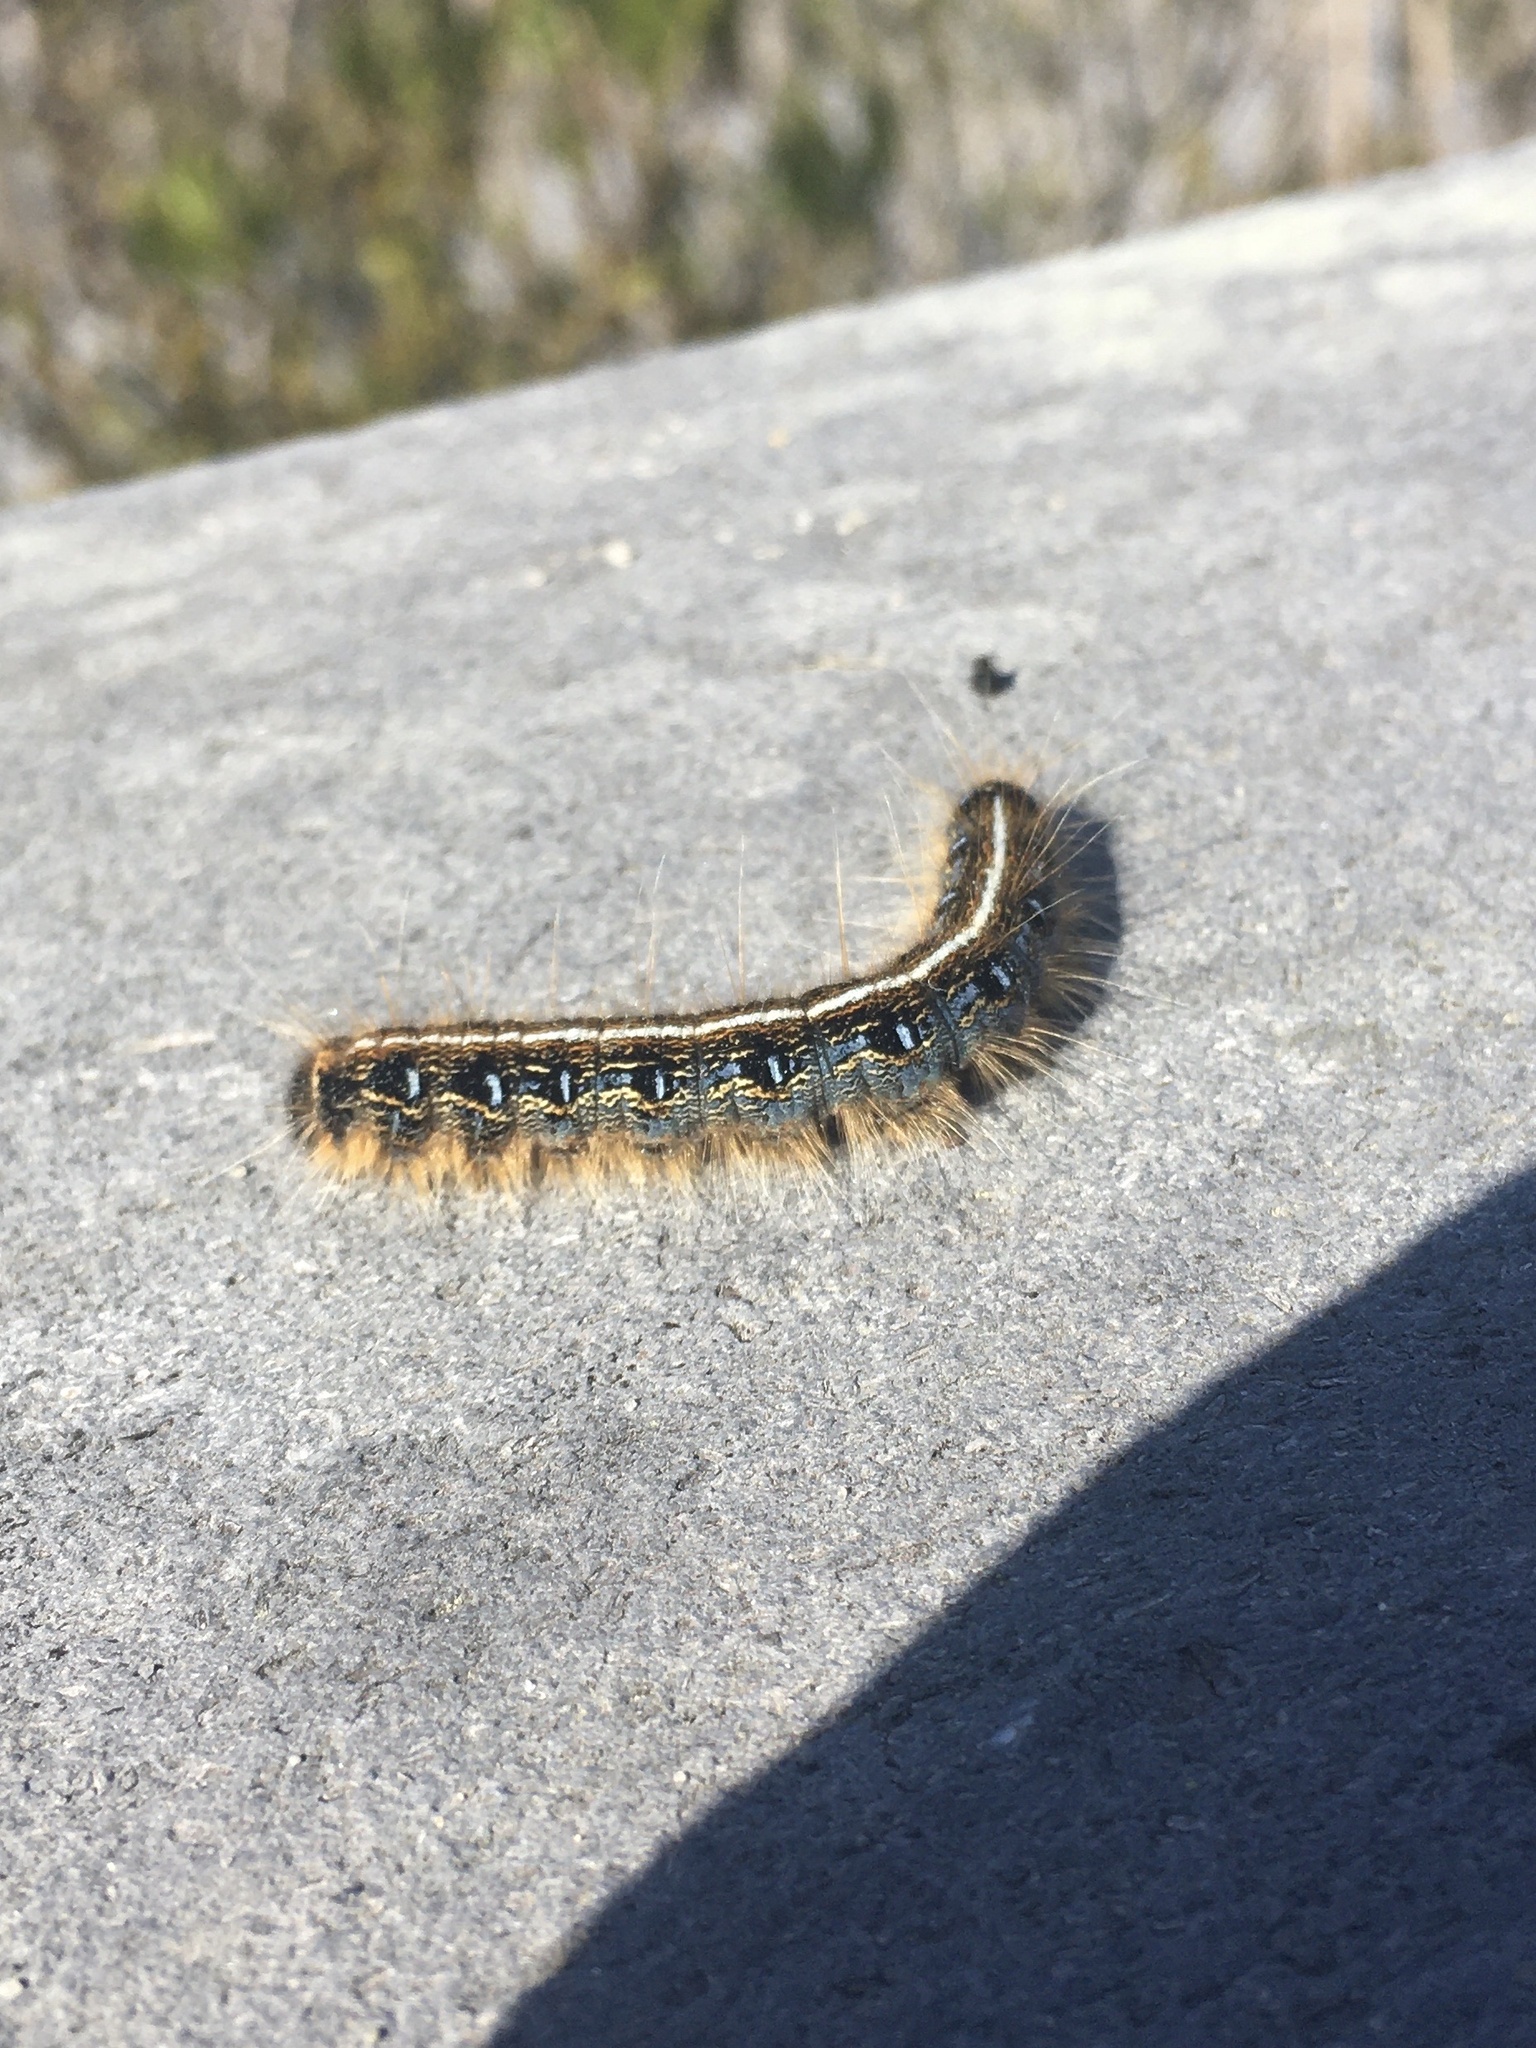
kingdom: Animalia
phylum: Arthropoda
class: Insecta
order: Lepidoptera
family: Lasiocampidae
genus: Malacosoma
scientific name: Malacosoma americana
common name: Eastern tent caterpillar moth
